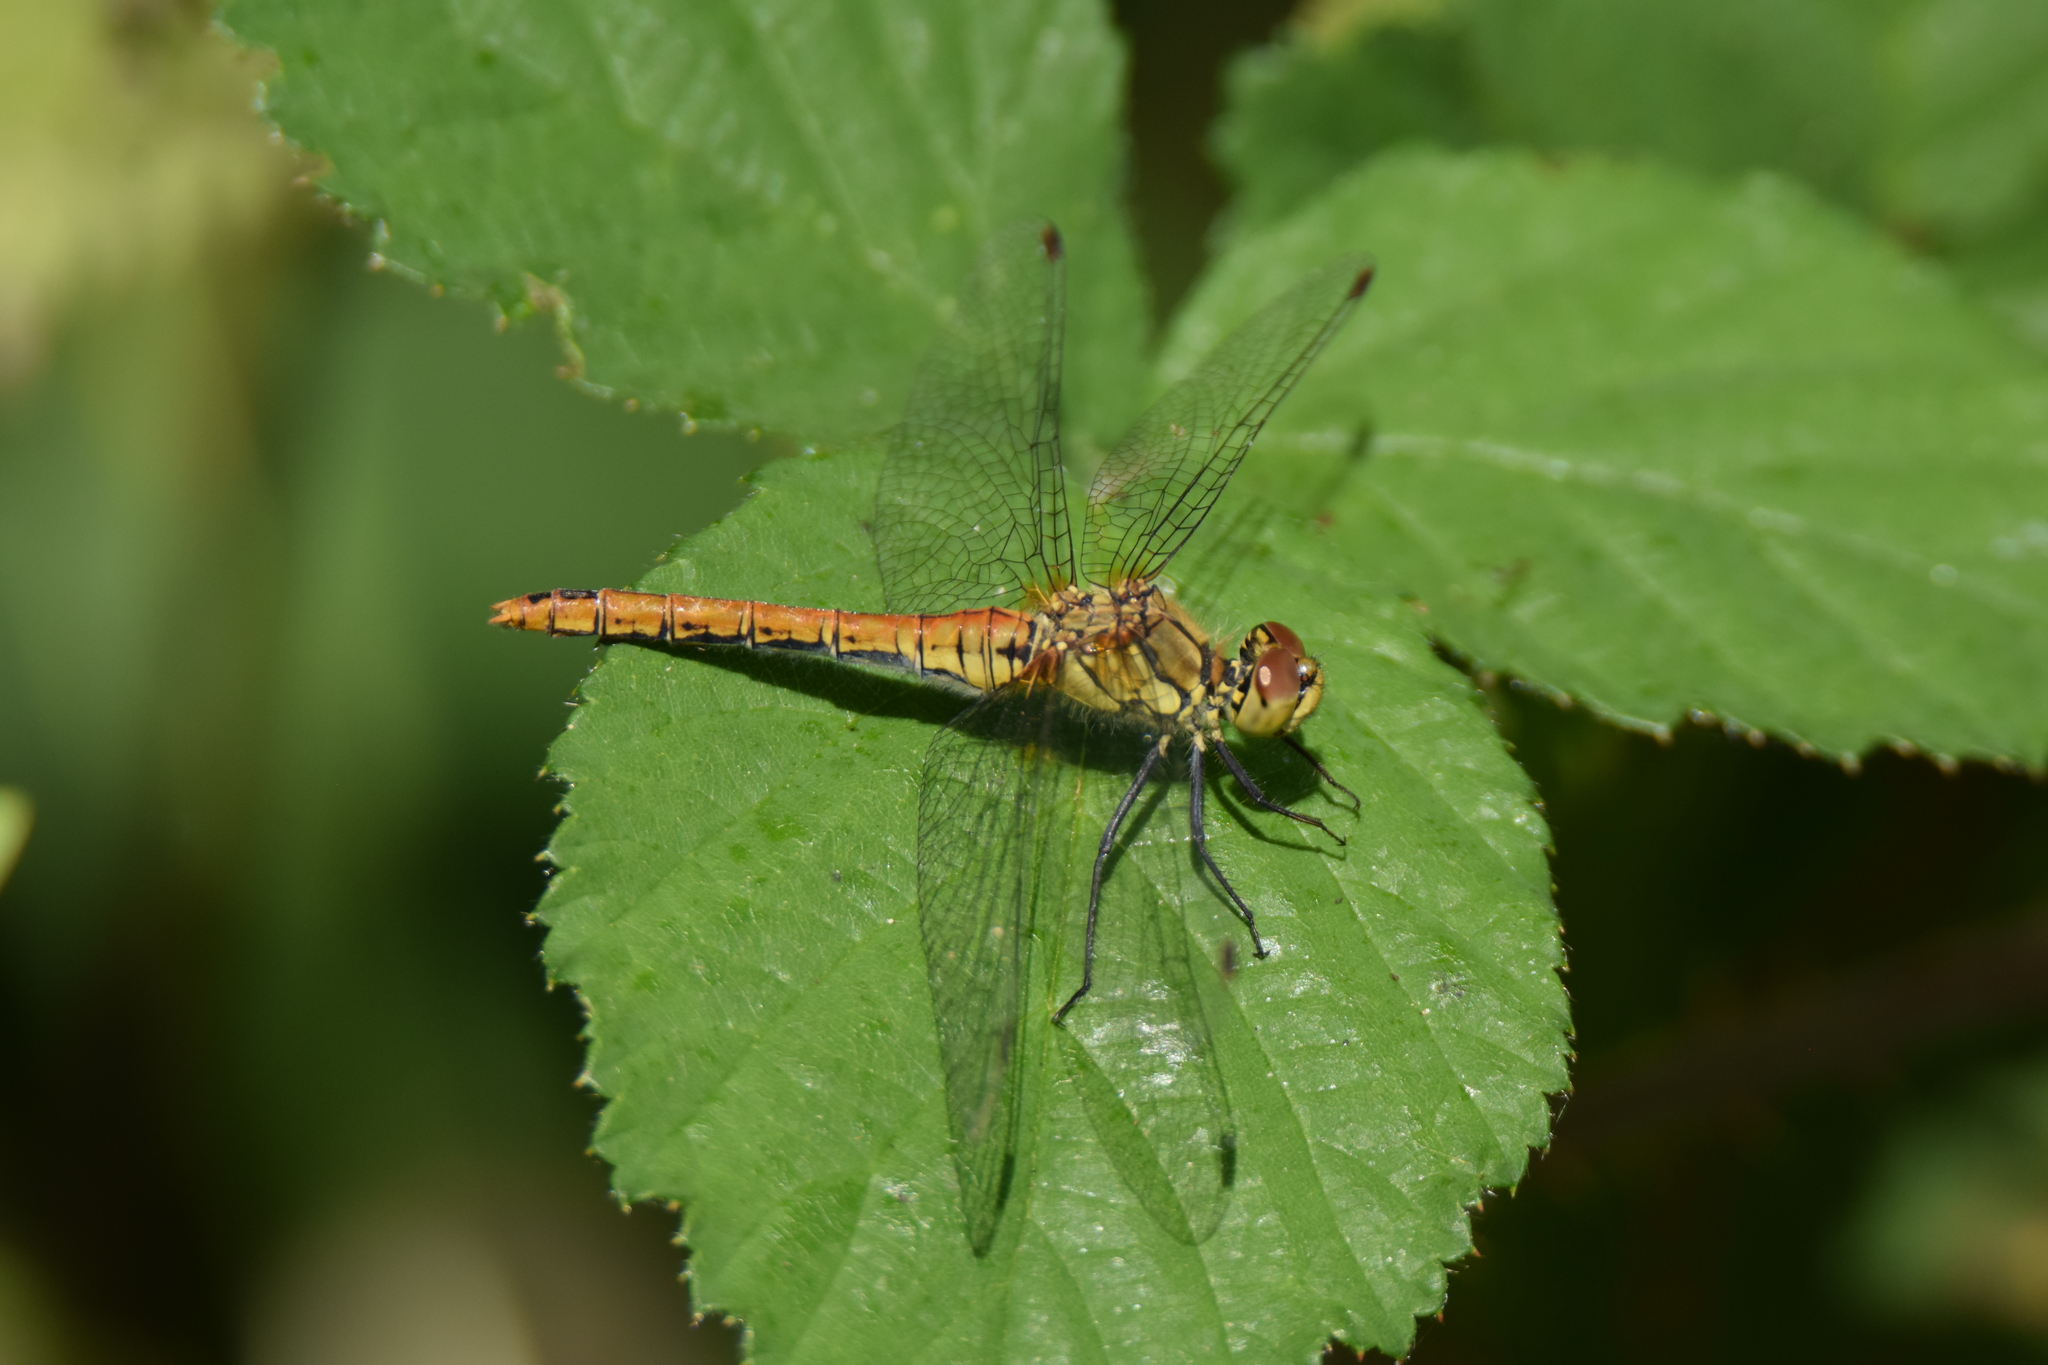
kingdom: Animalia
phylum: Arthropoda
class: Insecta
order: Odonata
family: Libellulidae
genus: Sympetrum
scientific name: Sympetrum sanguineum
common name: Ruddy darter
